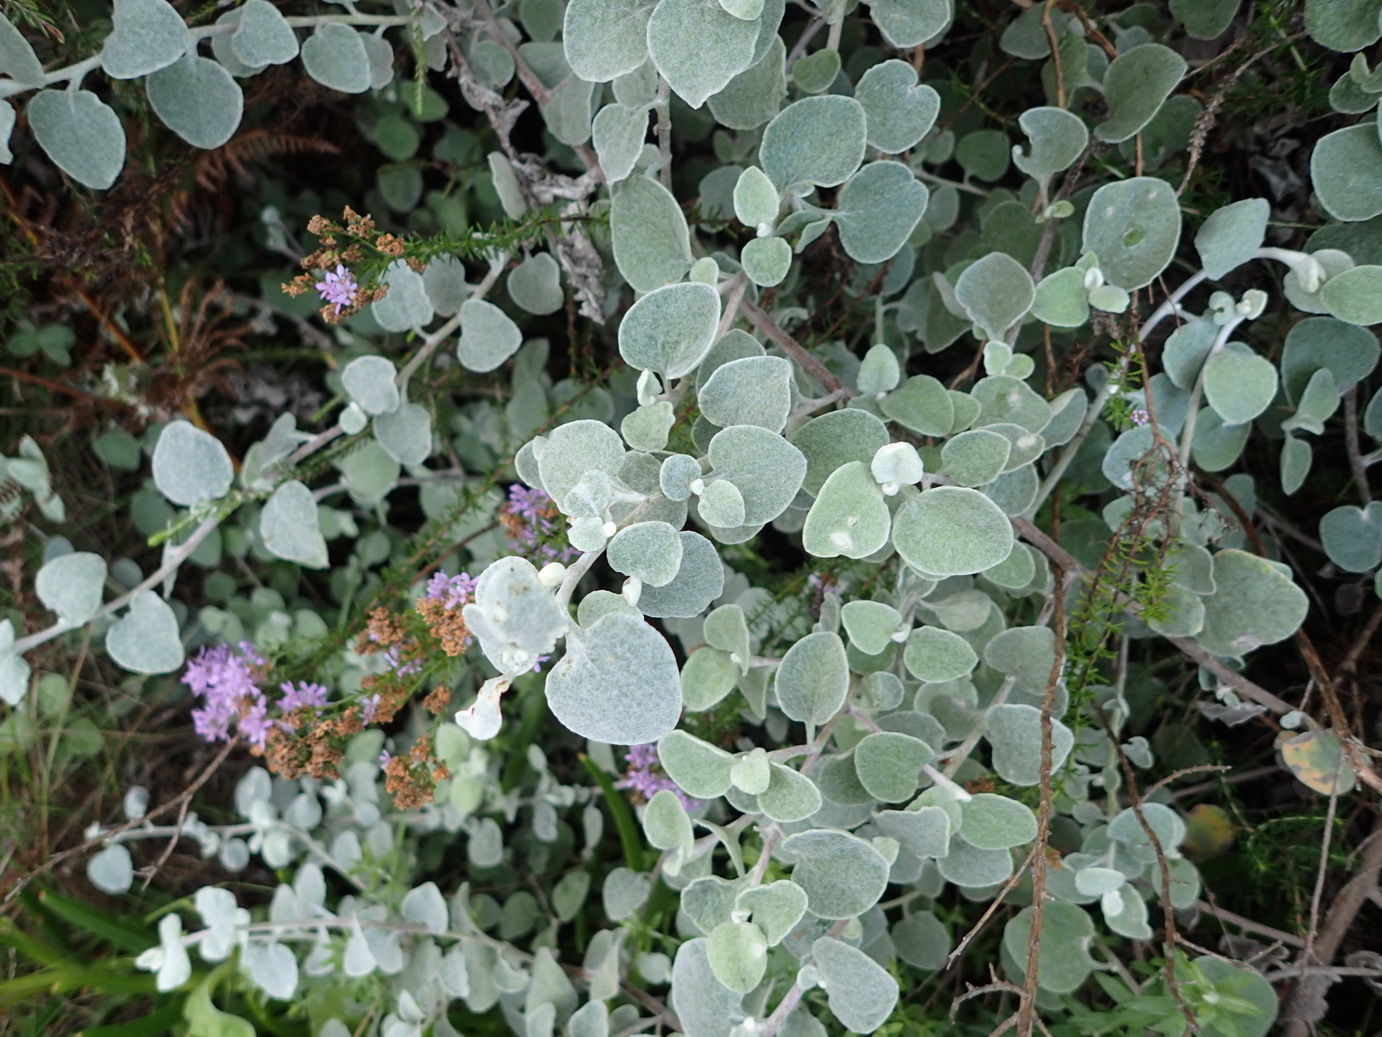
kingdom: Plantae
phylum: Tracheophyta
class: Magnoliopsida
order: Asterales
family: Asteraceae
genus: Helichrysum
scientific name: Helichrysum petiolare
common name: Licorice-plant
